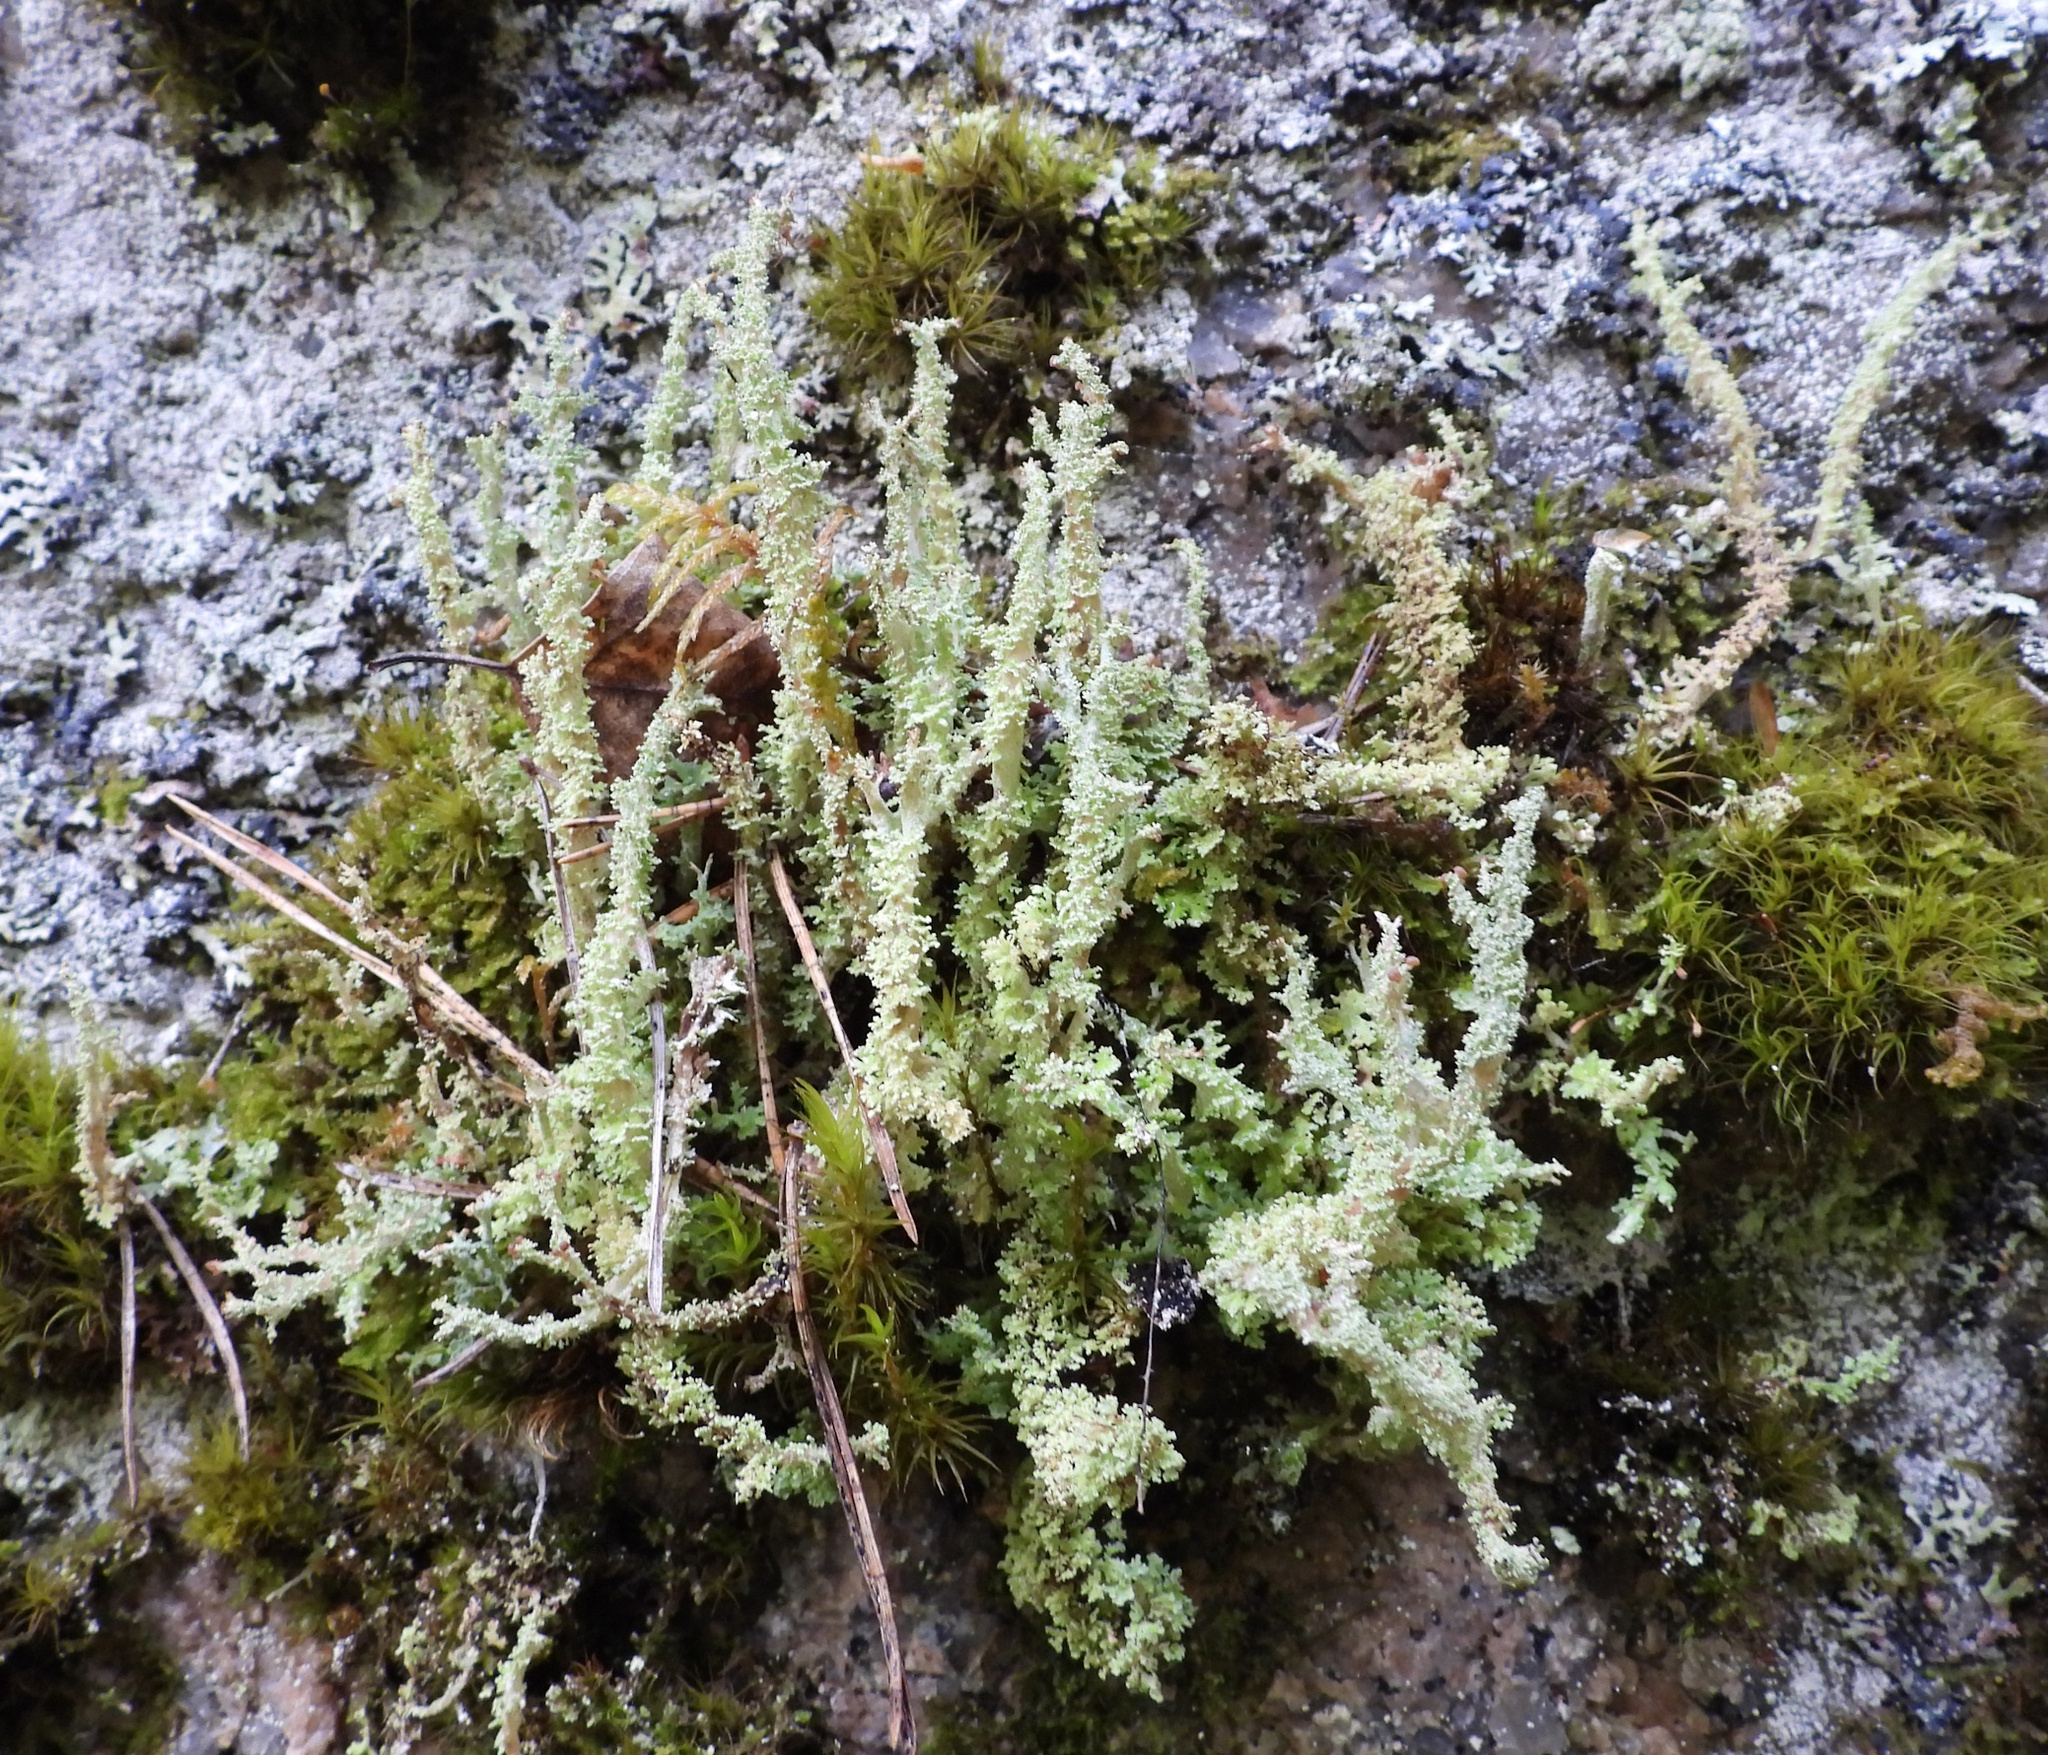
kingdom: Fungi
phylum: Ascomycota
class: Lecanoromycetes
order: Lecanorales
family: Cladoniaceae
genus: Cladonia
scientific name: Cladonia squamosa
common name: Dragon horn
